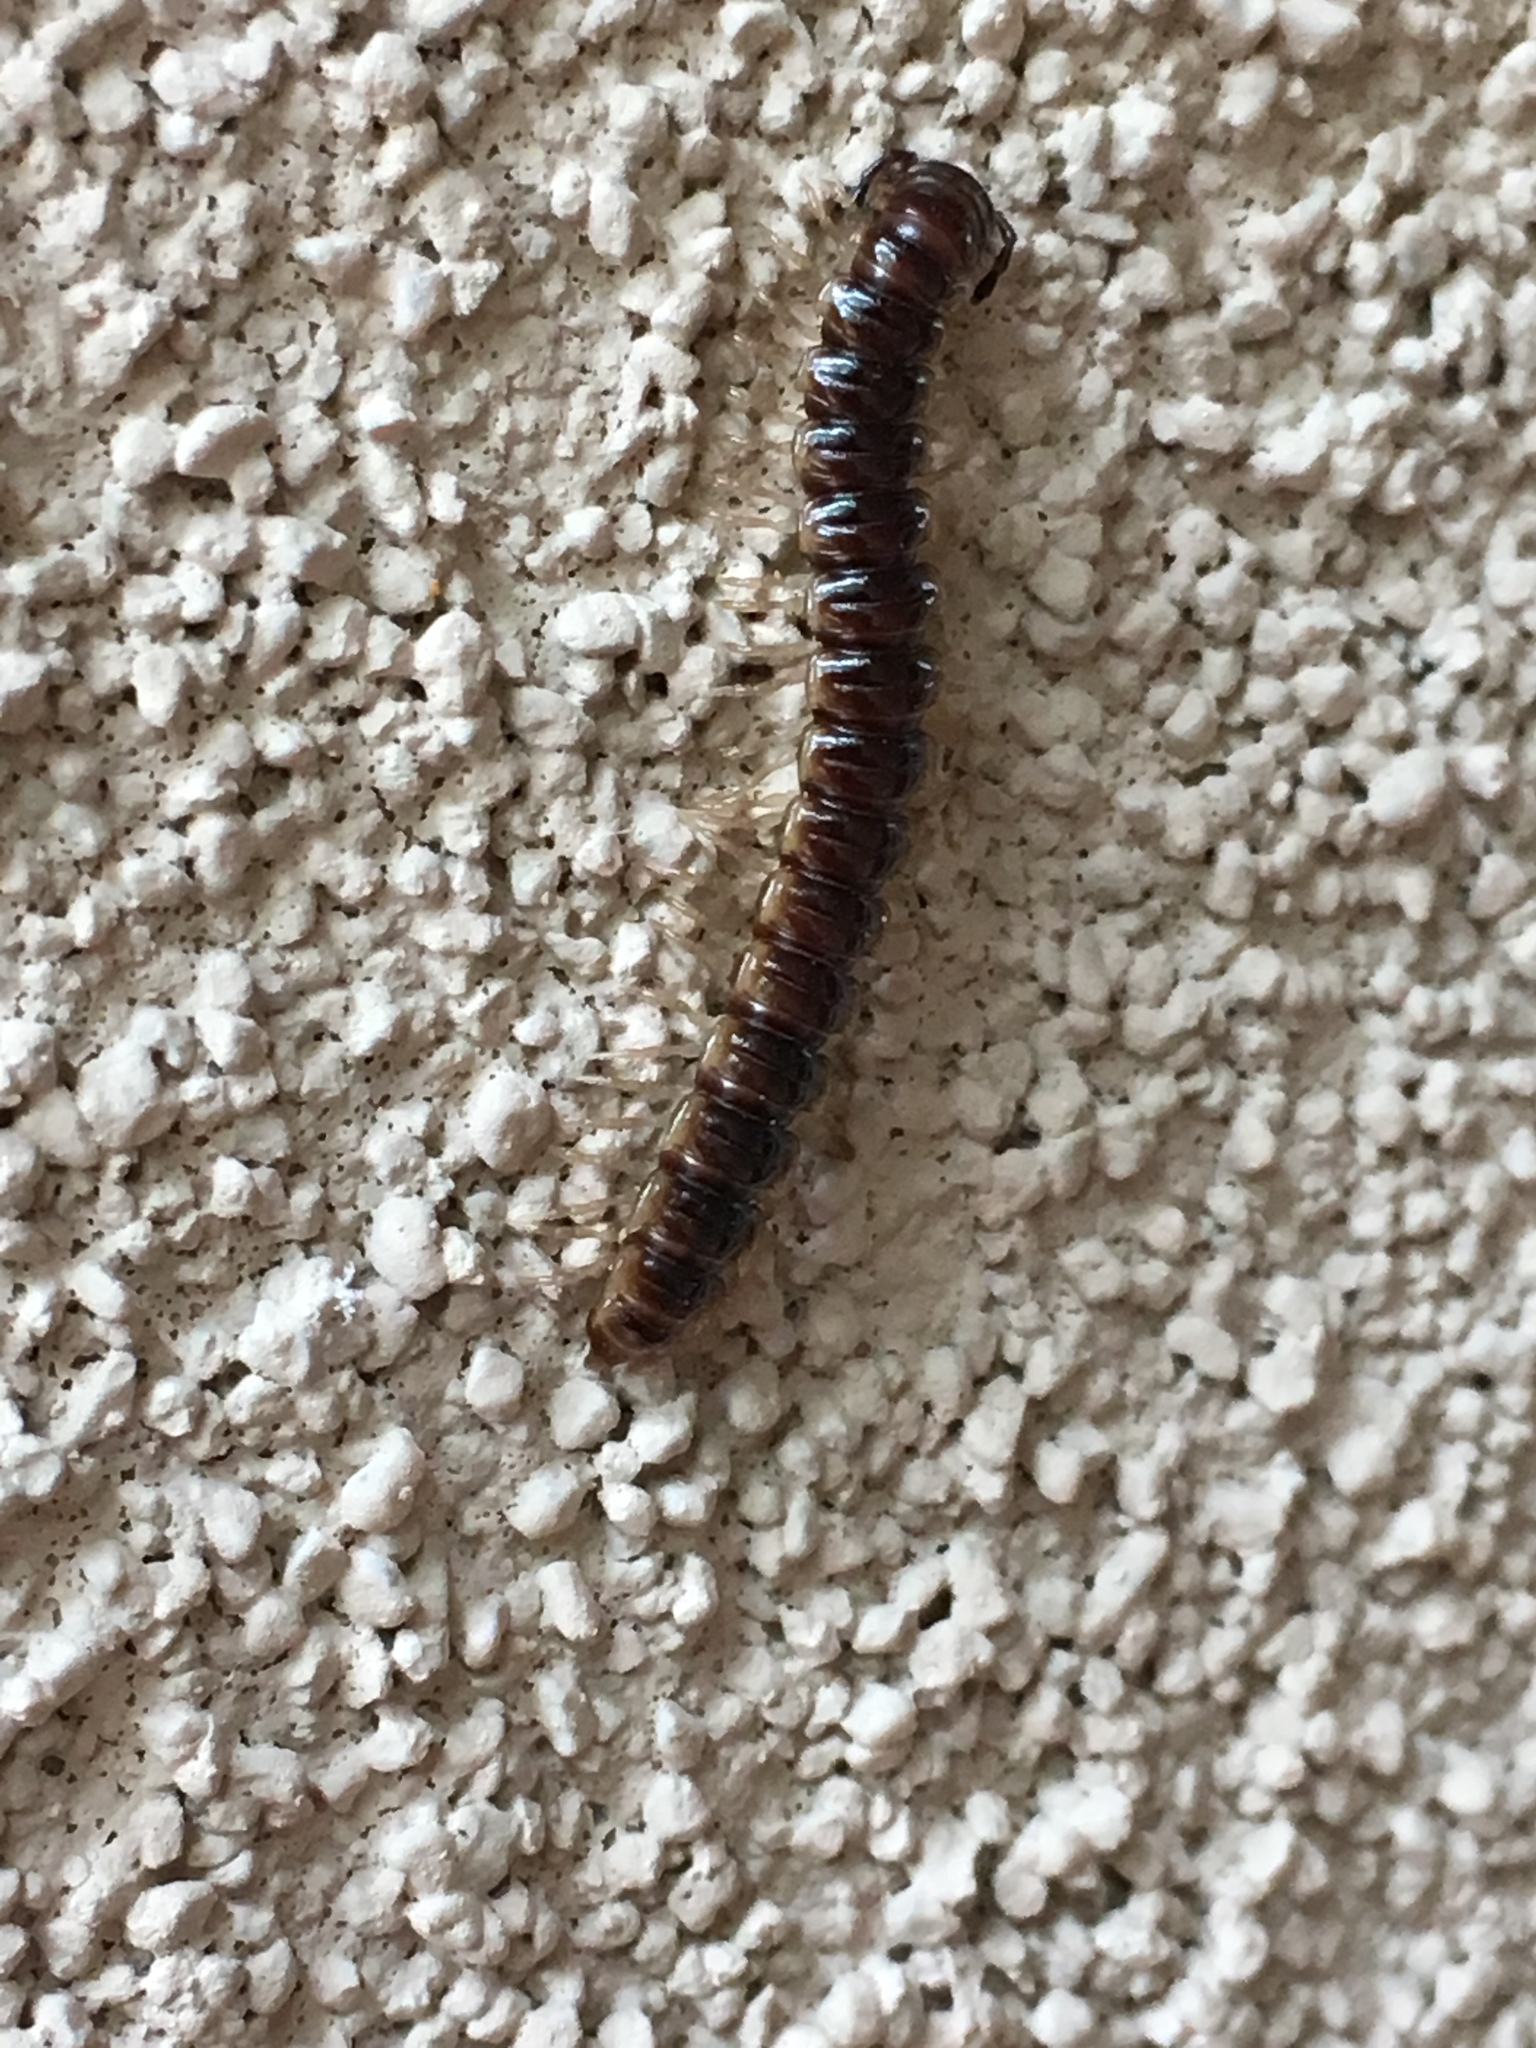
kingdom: Animalia
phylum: Arthropoda
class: Diplopoda
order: Polydesmida
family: Paradoxosomatidae
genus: Oxidus
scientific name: Oxidus gracilis
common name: Greenhouse millipede
